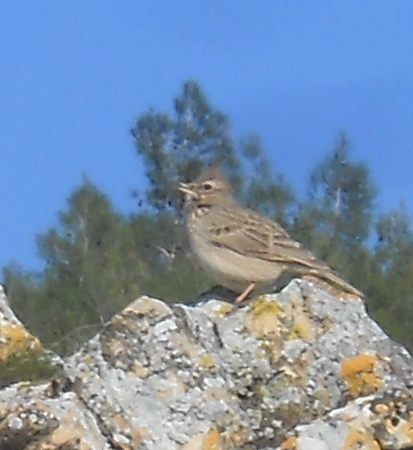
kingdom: Animalia
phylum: Chordata
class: Aves
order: Passeriformes
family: Alaudidae
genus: Galerida
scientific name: Galerida cristata
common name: Crested lark
